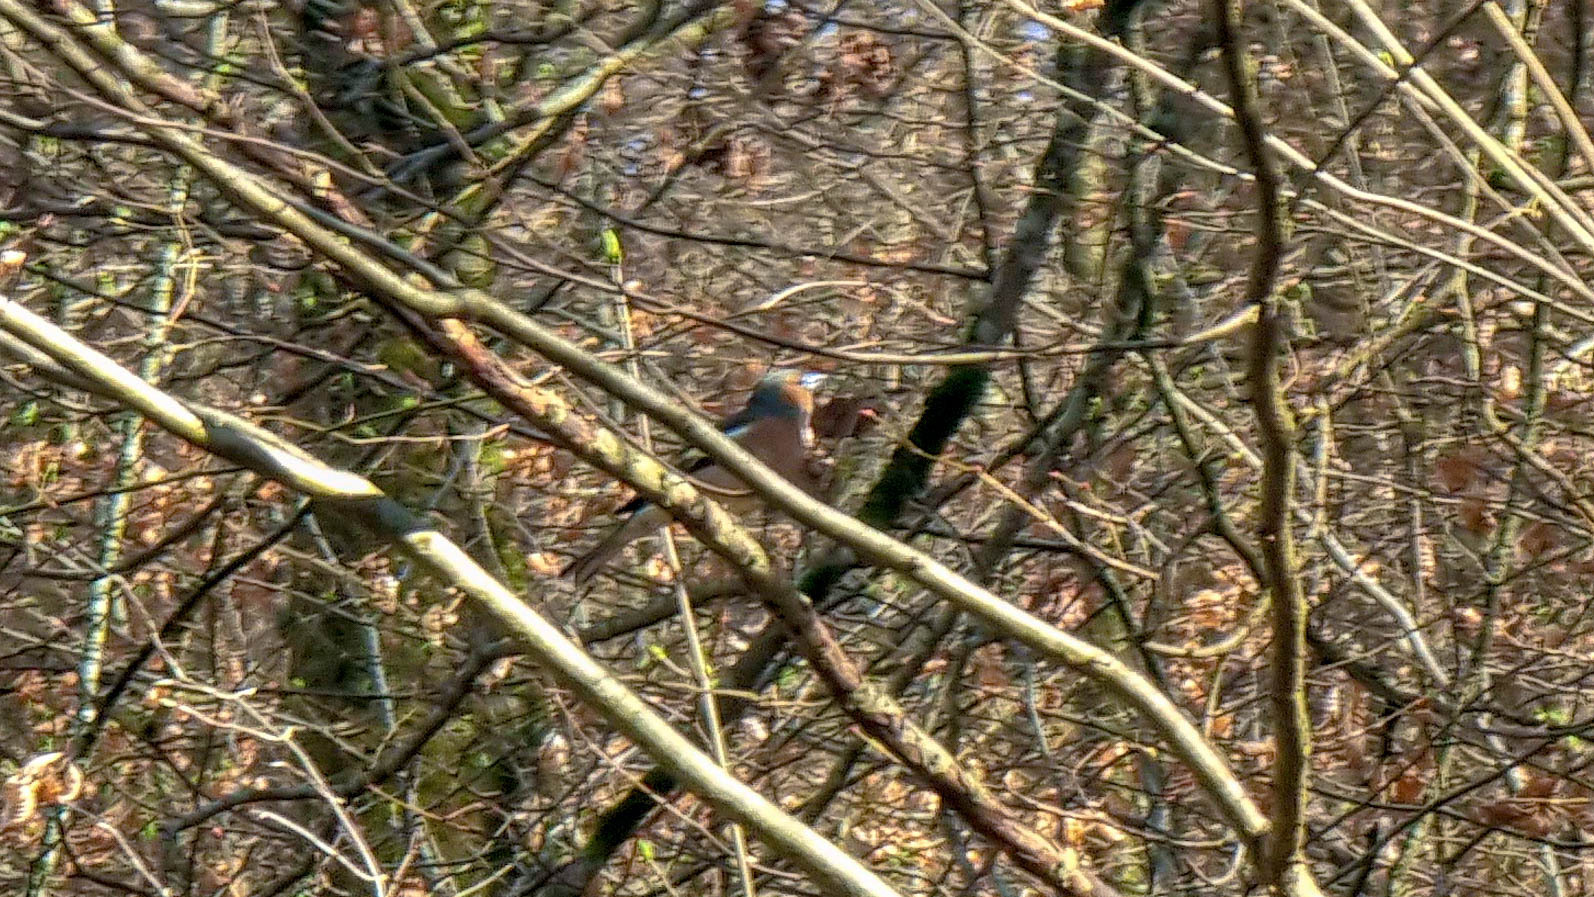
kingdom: Animalia
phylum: Chordata
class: Aves
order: Passeriformes
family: Fringillidae
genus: Fringilla
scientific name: Fringilla coelebs
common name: Common chaffinch
